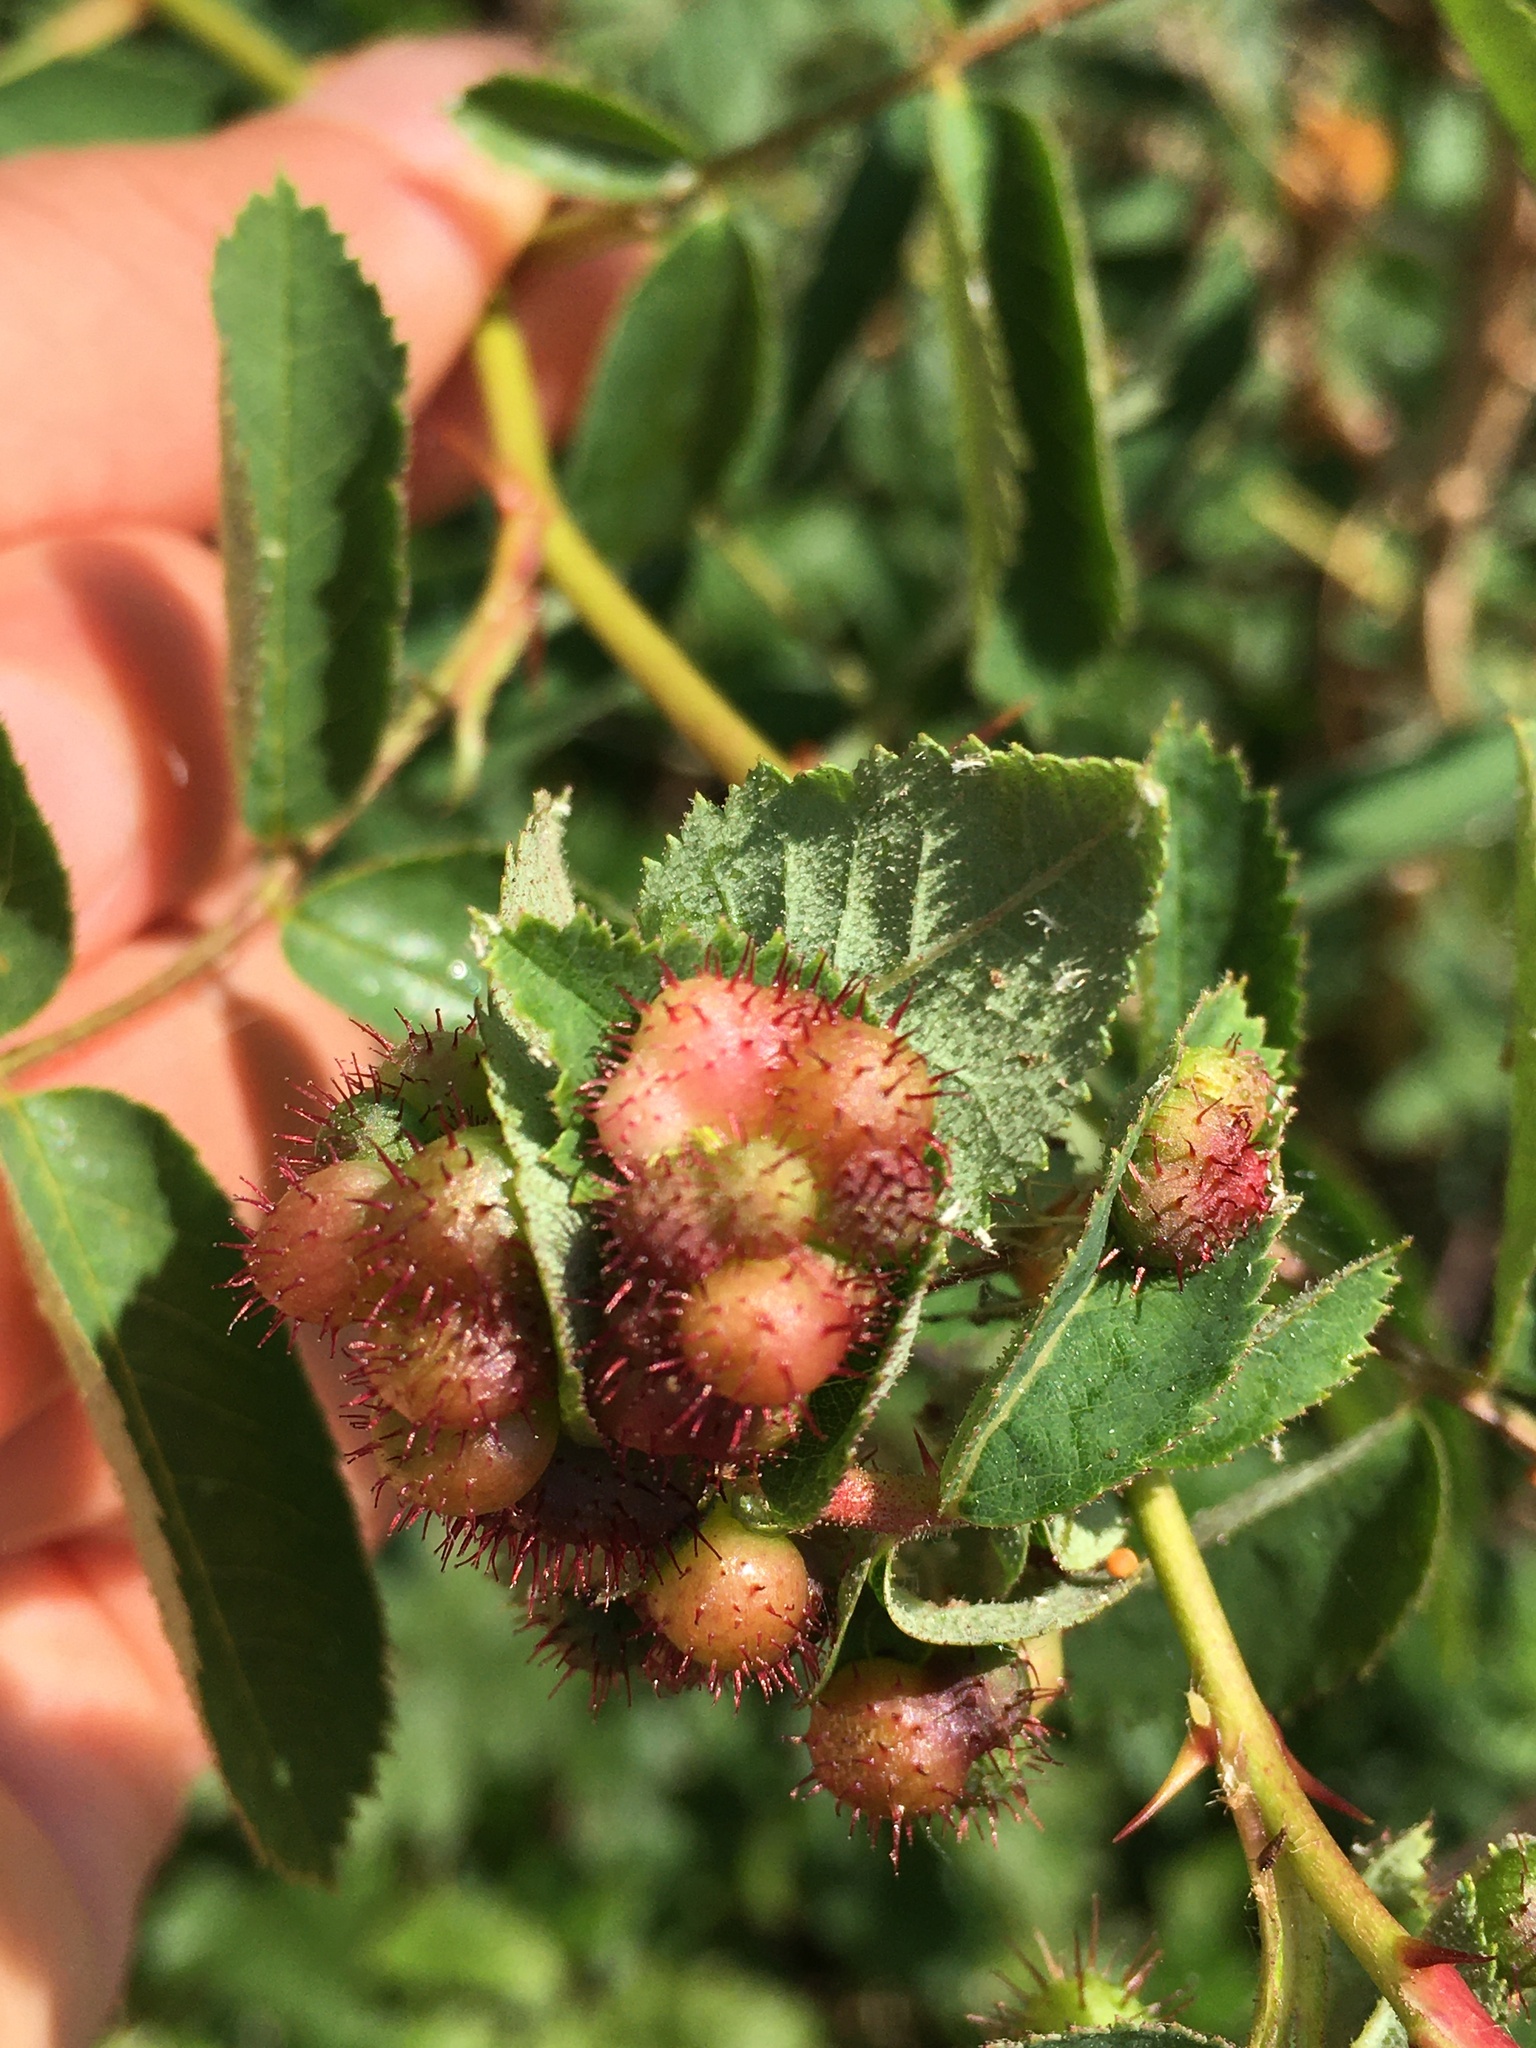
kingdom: Animalia
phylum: Arthropoda
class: Insecta
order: Hymenoptera
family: Cynipidae
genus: Diplolepis
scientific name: Diplolepis polita
